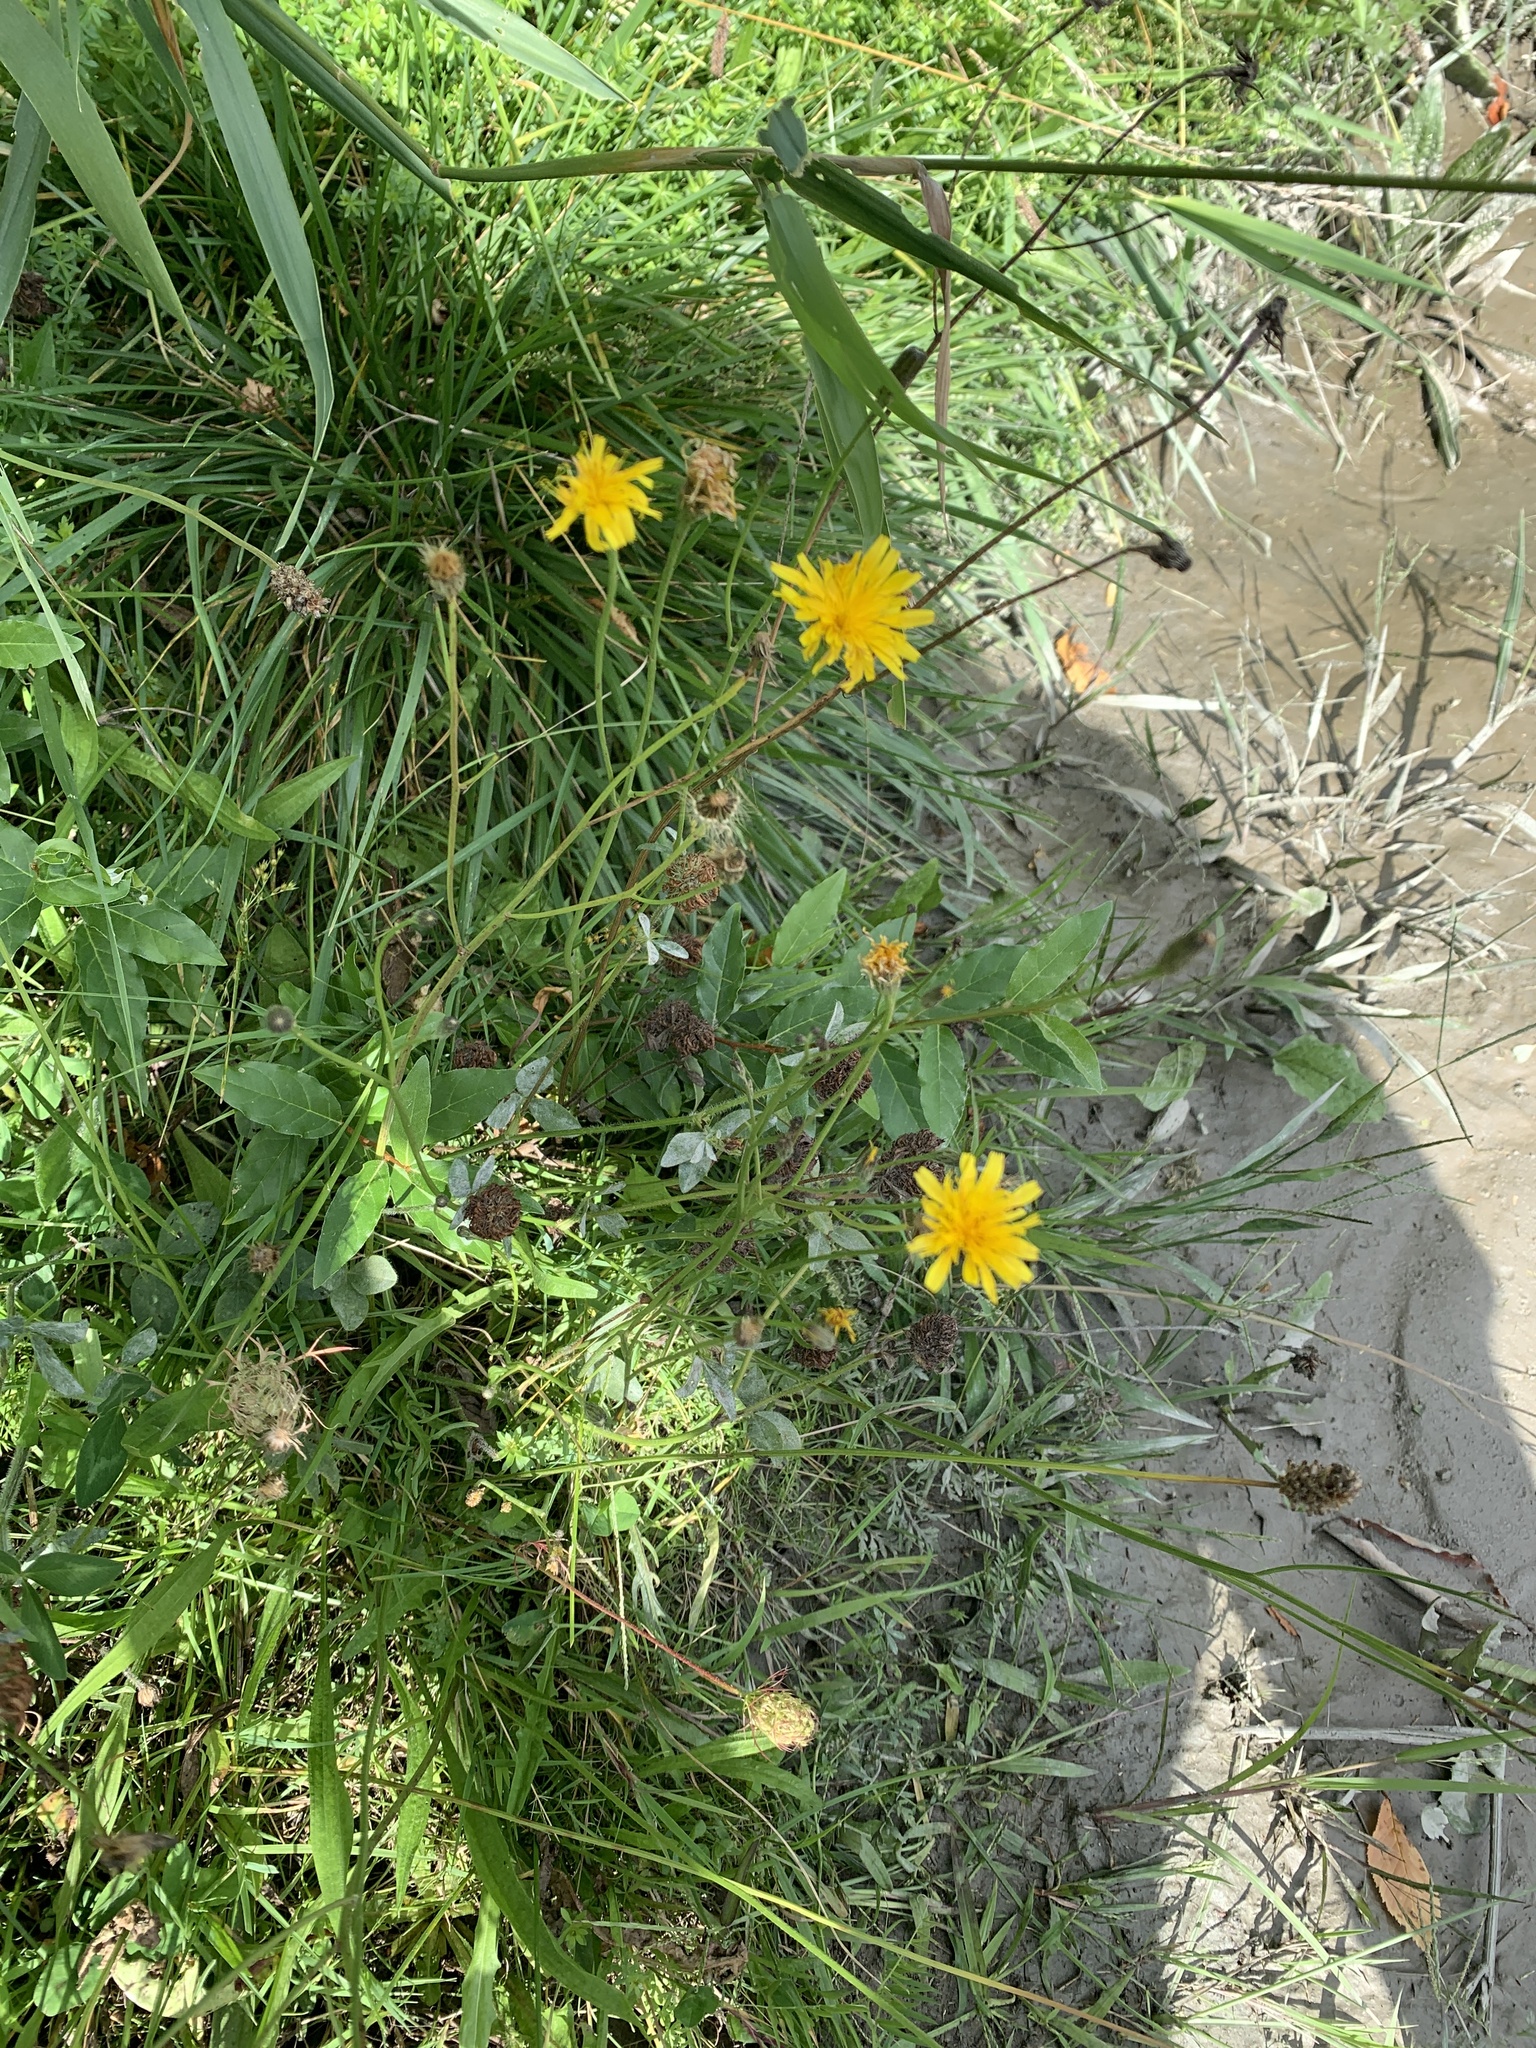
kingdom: Plantae
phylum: Tracheophyta
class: Magnoliopsida
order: Asterales
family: Asteraceae
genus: Scorzoneroides
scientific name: Scorzoneroides autumnalis
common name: Autumn hawkbit
